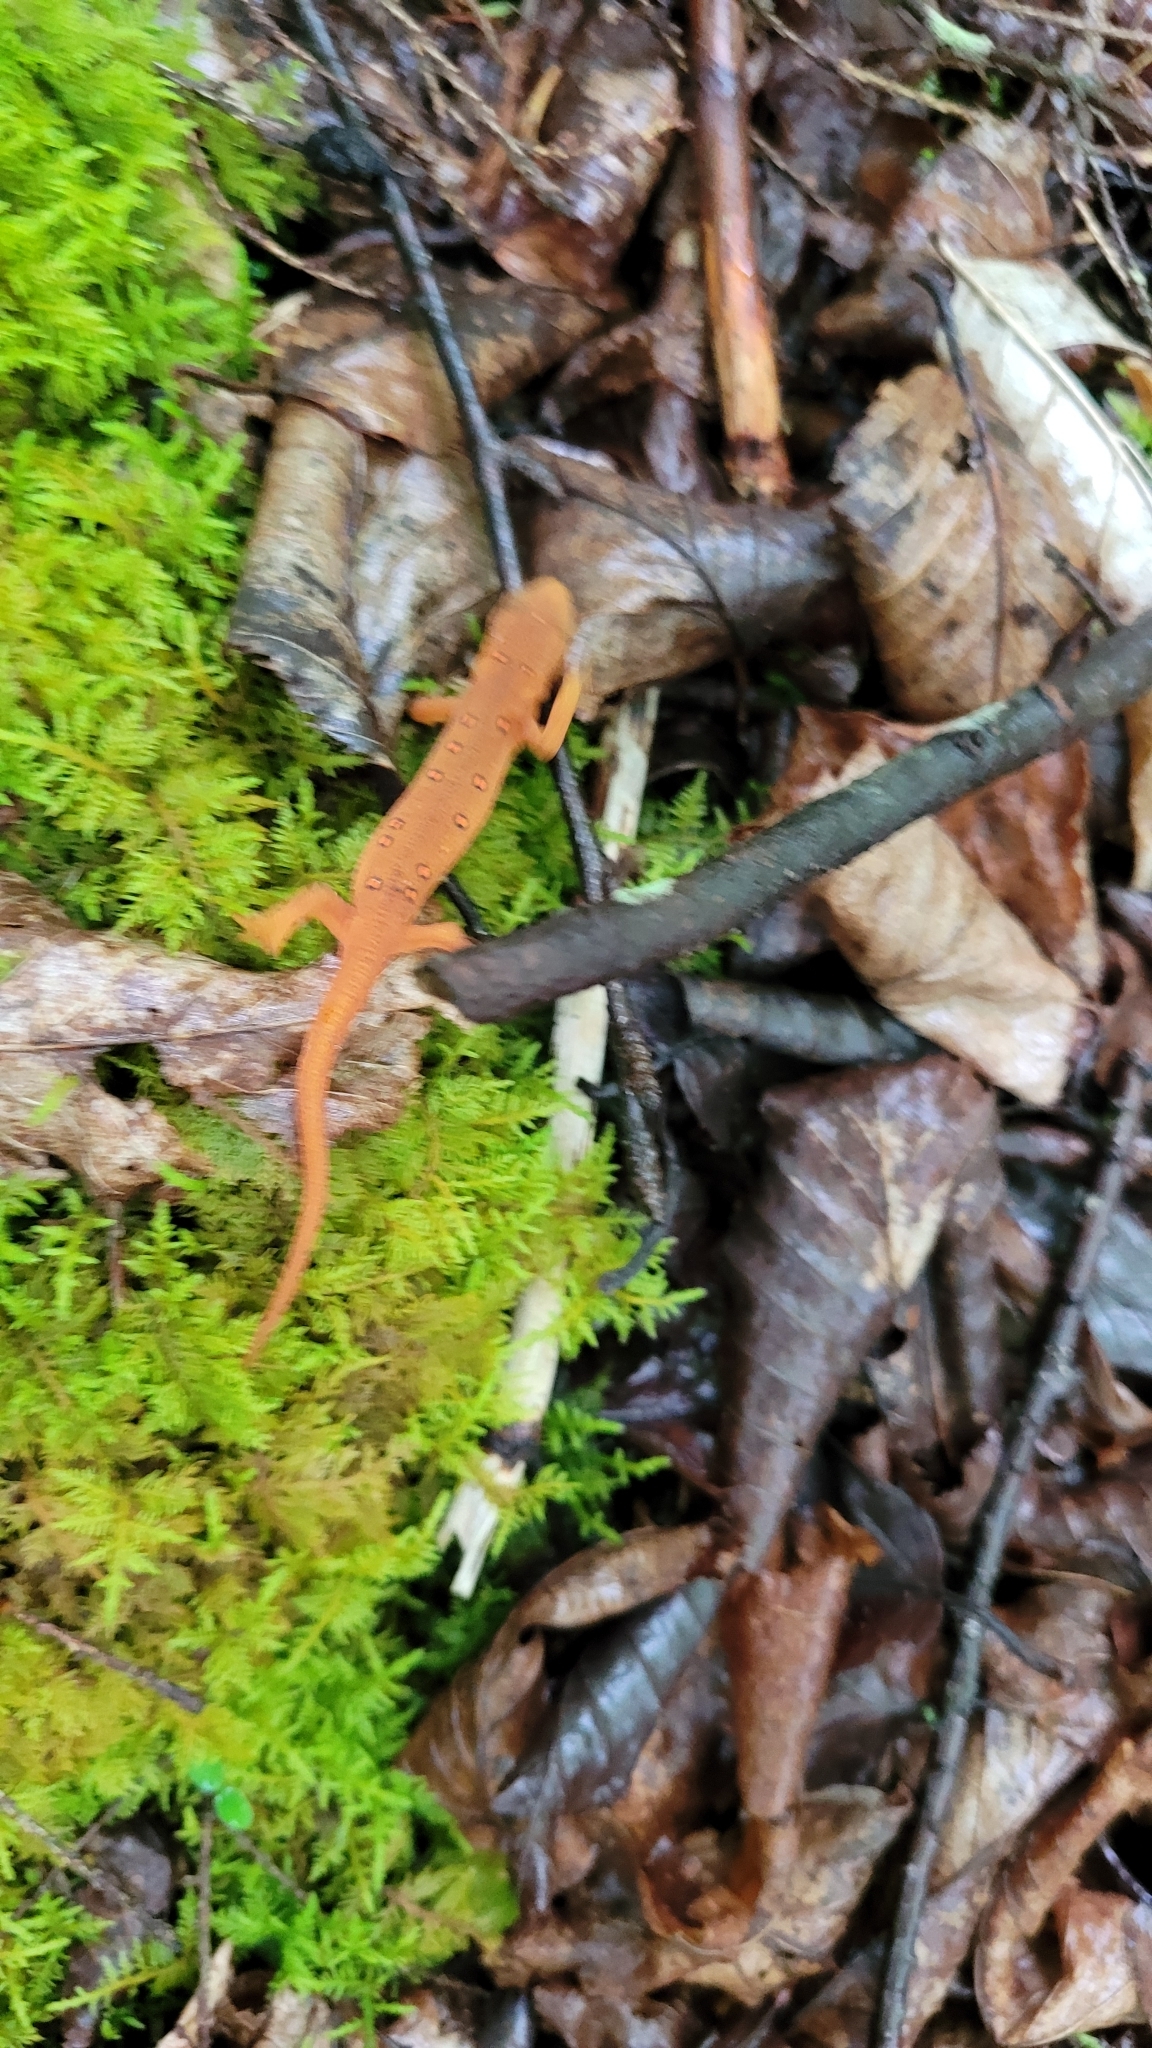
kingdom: Animalia
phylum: Chordata
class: Amphibia
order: Caudata
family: Salamandridae
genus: Notophthalmus
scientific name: Notophthalmus viridescens
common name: Eastern newt
